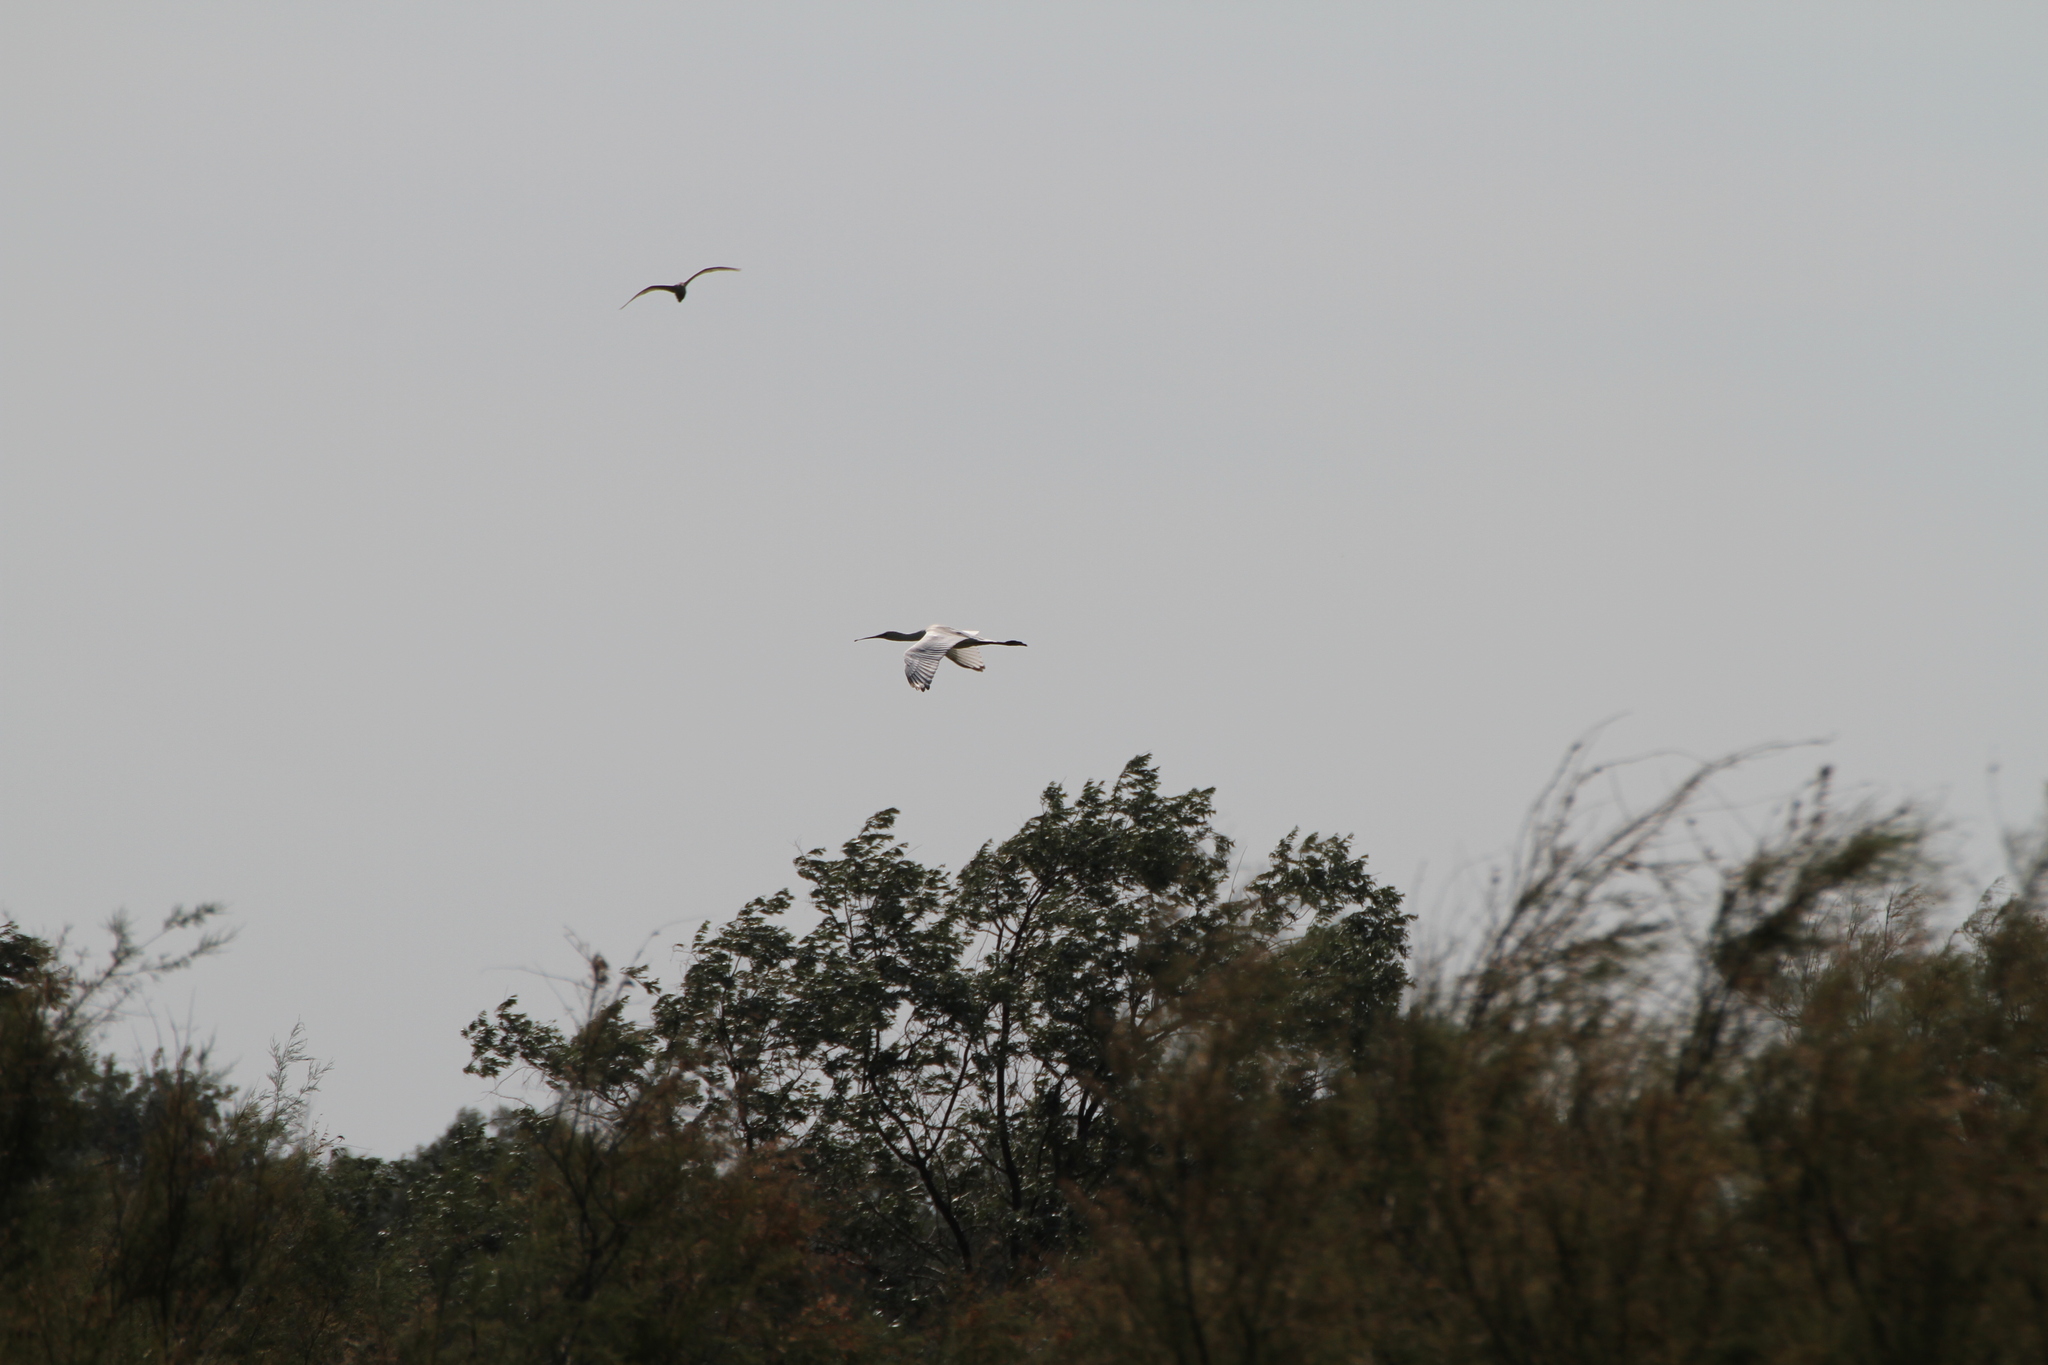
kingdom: Animalia
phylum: Chordata
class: Aves
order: Pelecaniformes
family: Threskiornithidae
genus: Platalea
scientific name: Platalea leucorodia
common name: Eurasian spoonbill
